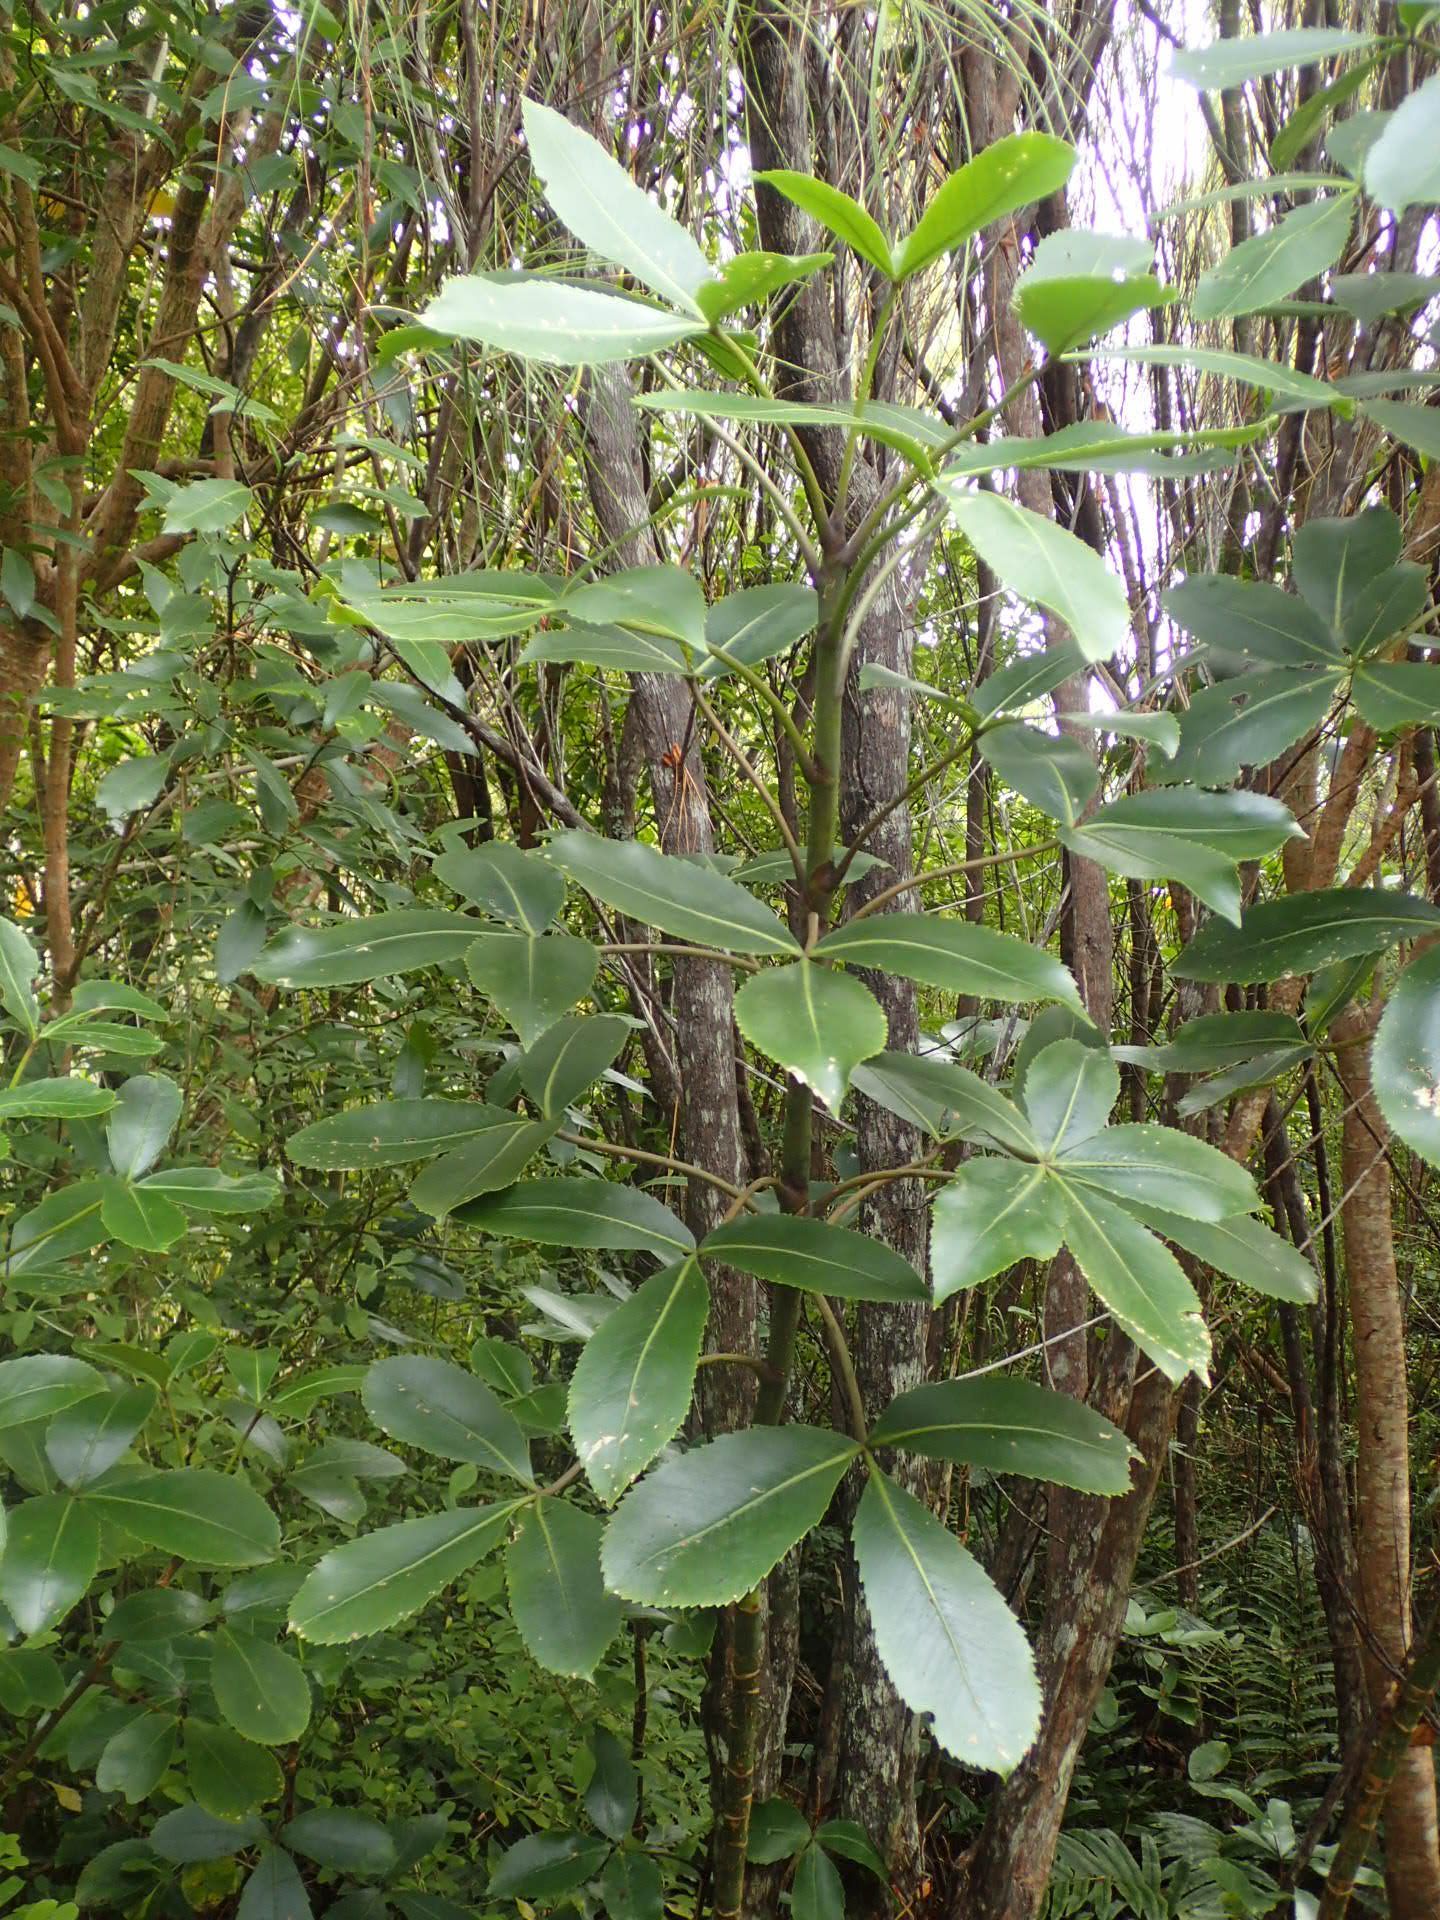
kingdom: Plantae
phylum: Tracheophyta
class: Magnoliopsida
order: Apiales
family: Araliaceae
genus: Neopanax
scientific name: Neopanax colensoi
